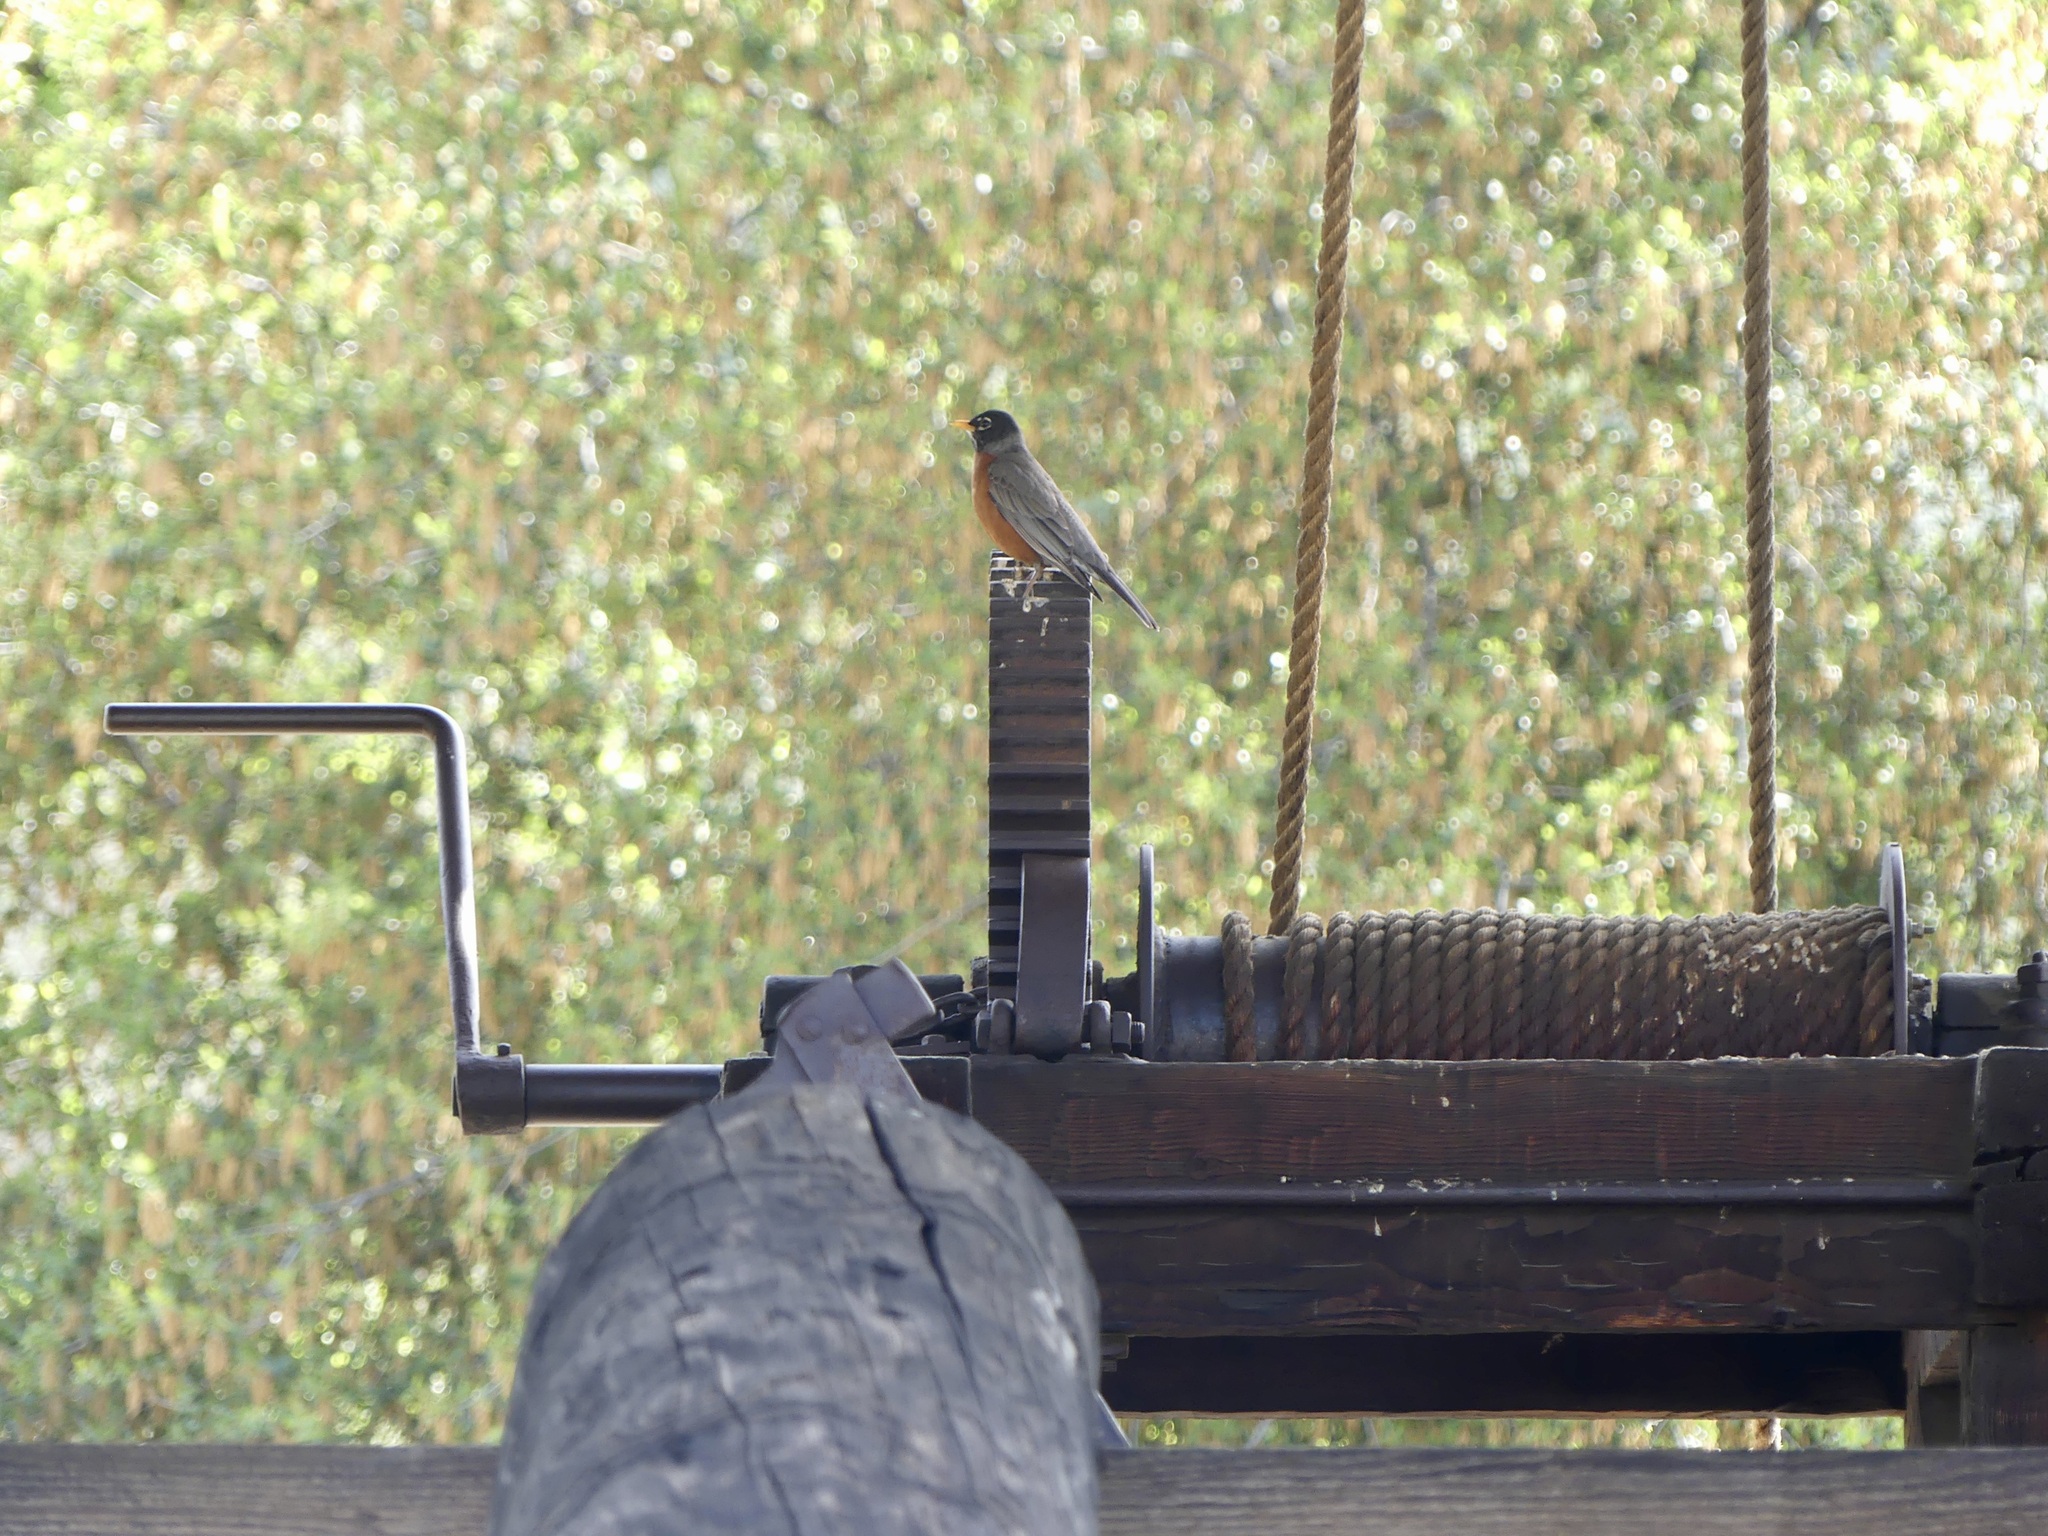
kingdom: Animalia
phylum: Chordata
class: Aves
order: Passeriformes
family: Turdidae
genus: Turdus
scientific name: Turdus migratorius
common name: American robin
